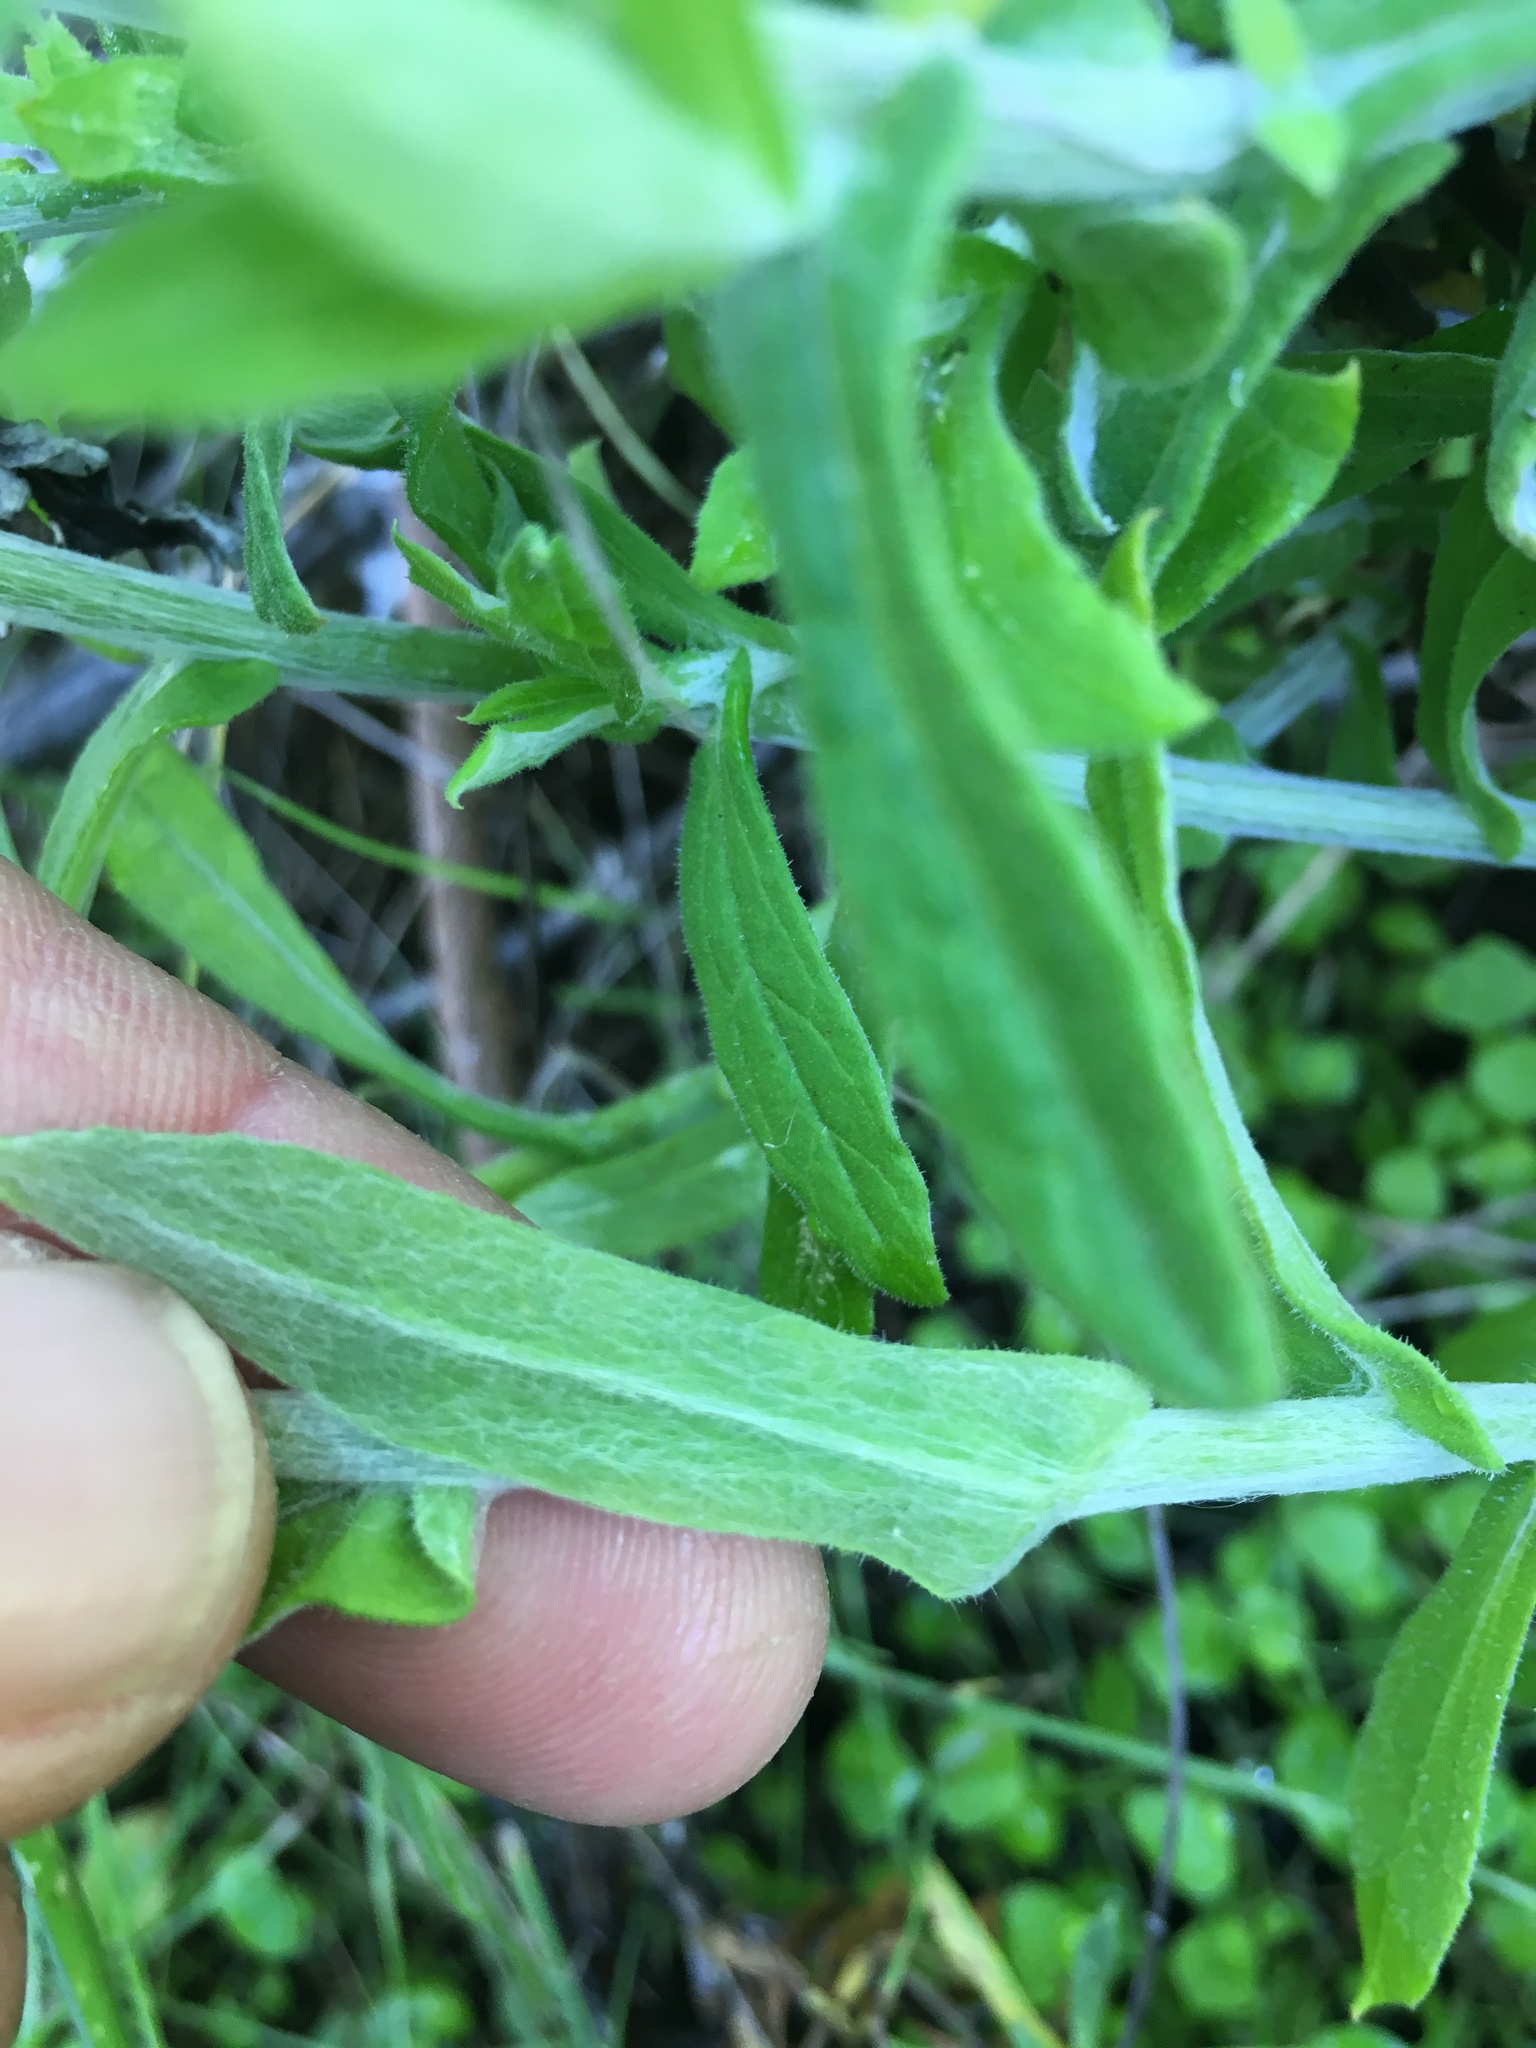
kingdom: Plantae
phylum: Tracheophyta
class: Magnoliopsida
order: Asterales
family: Asteraceae
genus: Pseudognaphalium
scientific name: Pseudognaphalium biolettii
